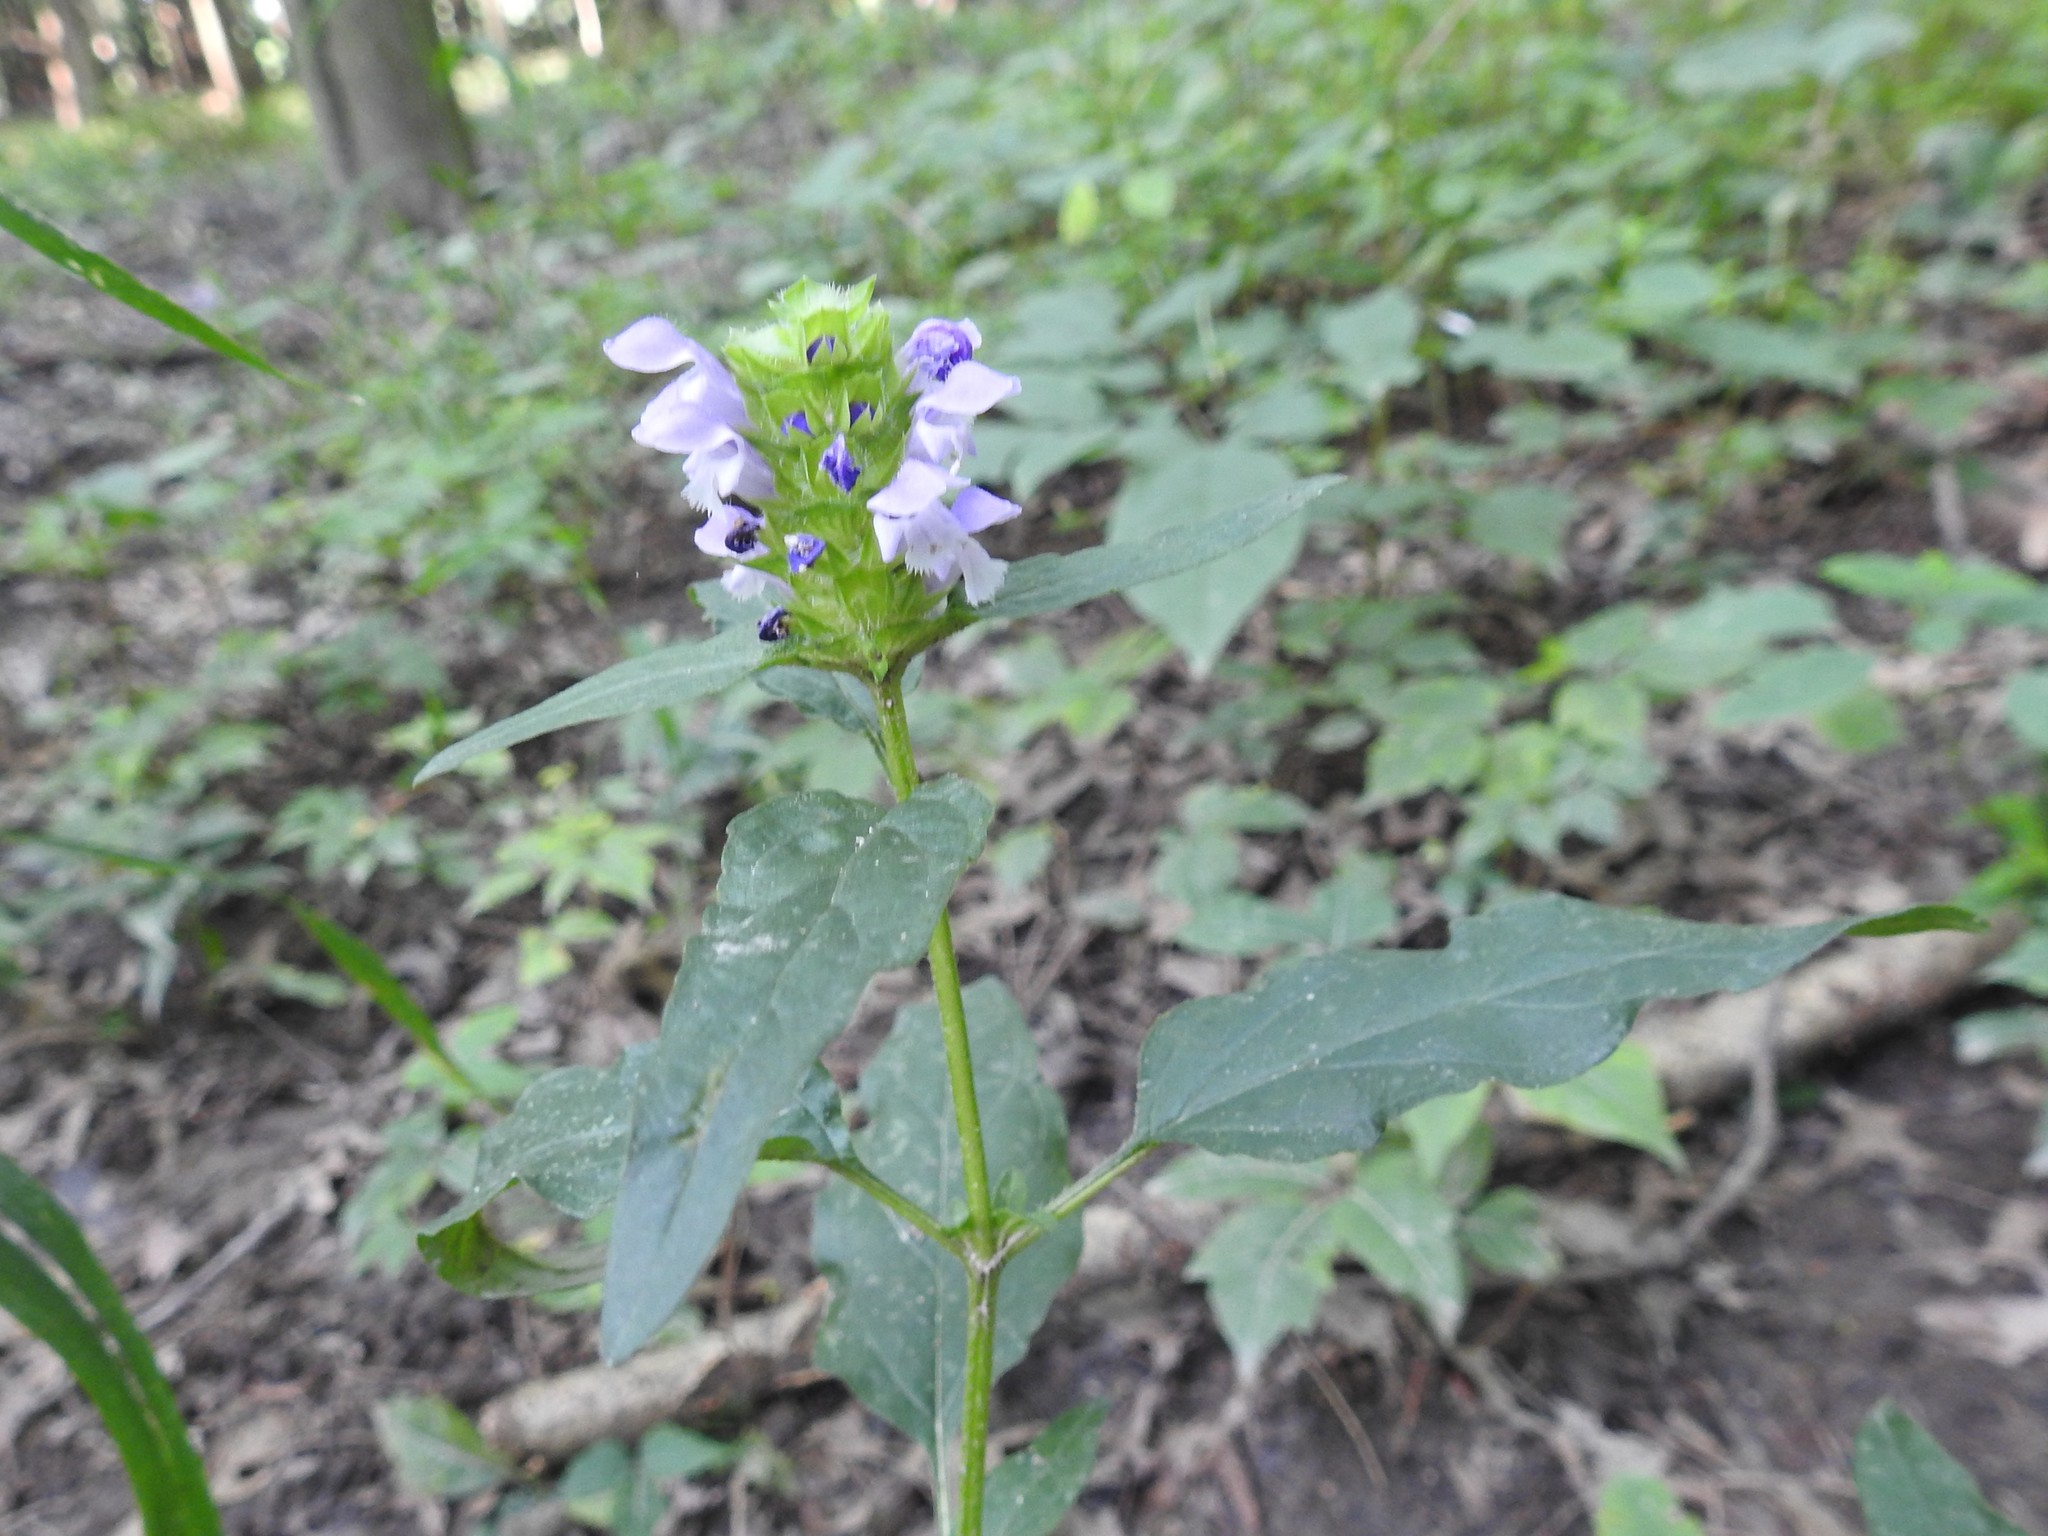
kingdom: Plantae
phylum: Tracheophyta
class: Magnoliopsida
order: Lamiales
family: Lamiaceae
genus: Prunella
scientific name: Prunella vulgaris
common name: Heal-all
